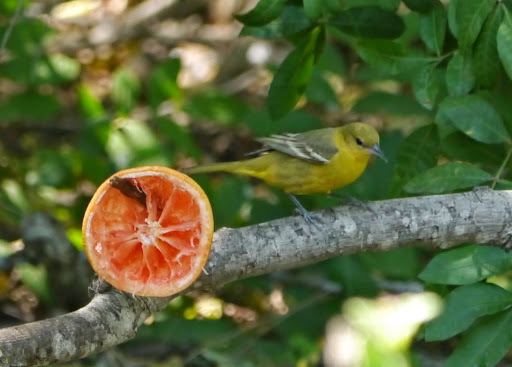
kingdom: Animalia
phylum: Chordata
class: Aves
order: Passeriformes
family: Icteridae
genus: Icterus
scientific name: Icterus spurius
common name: Orchard oriole
